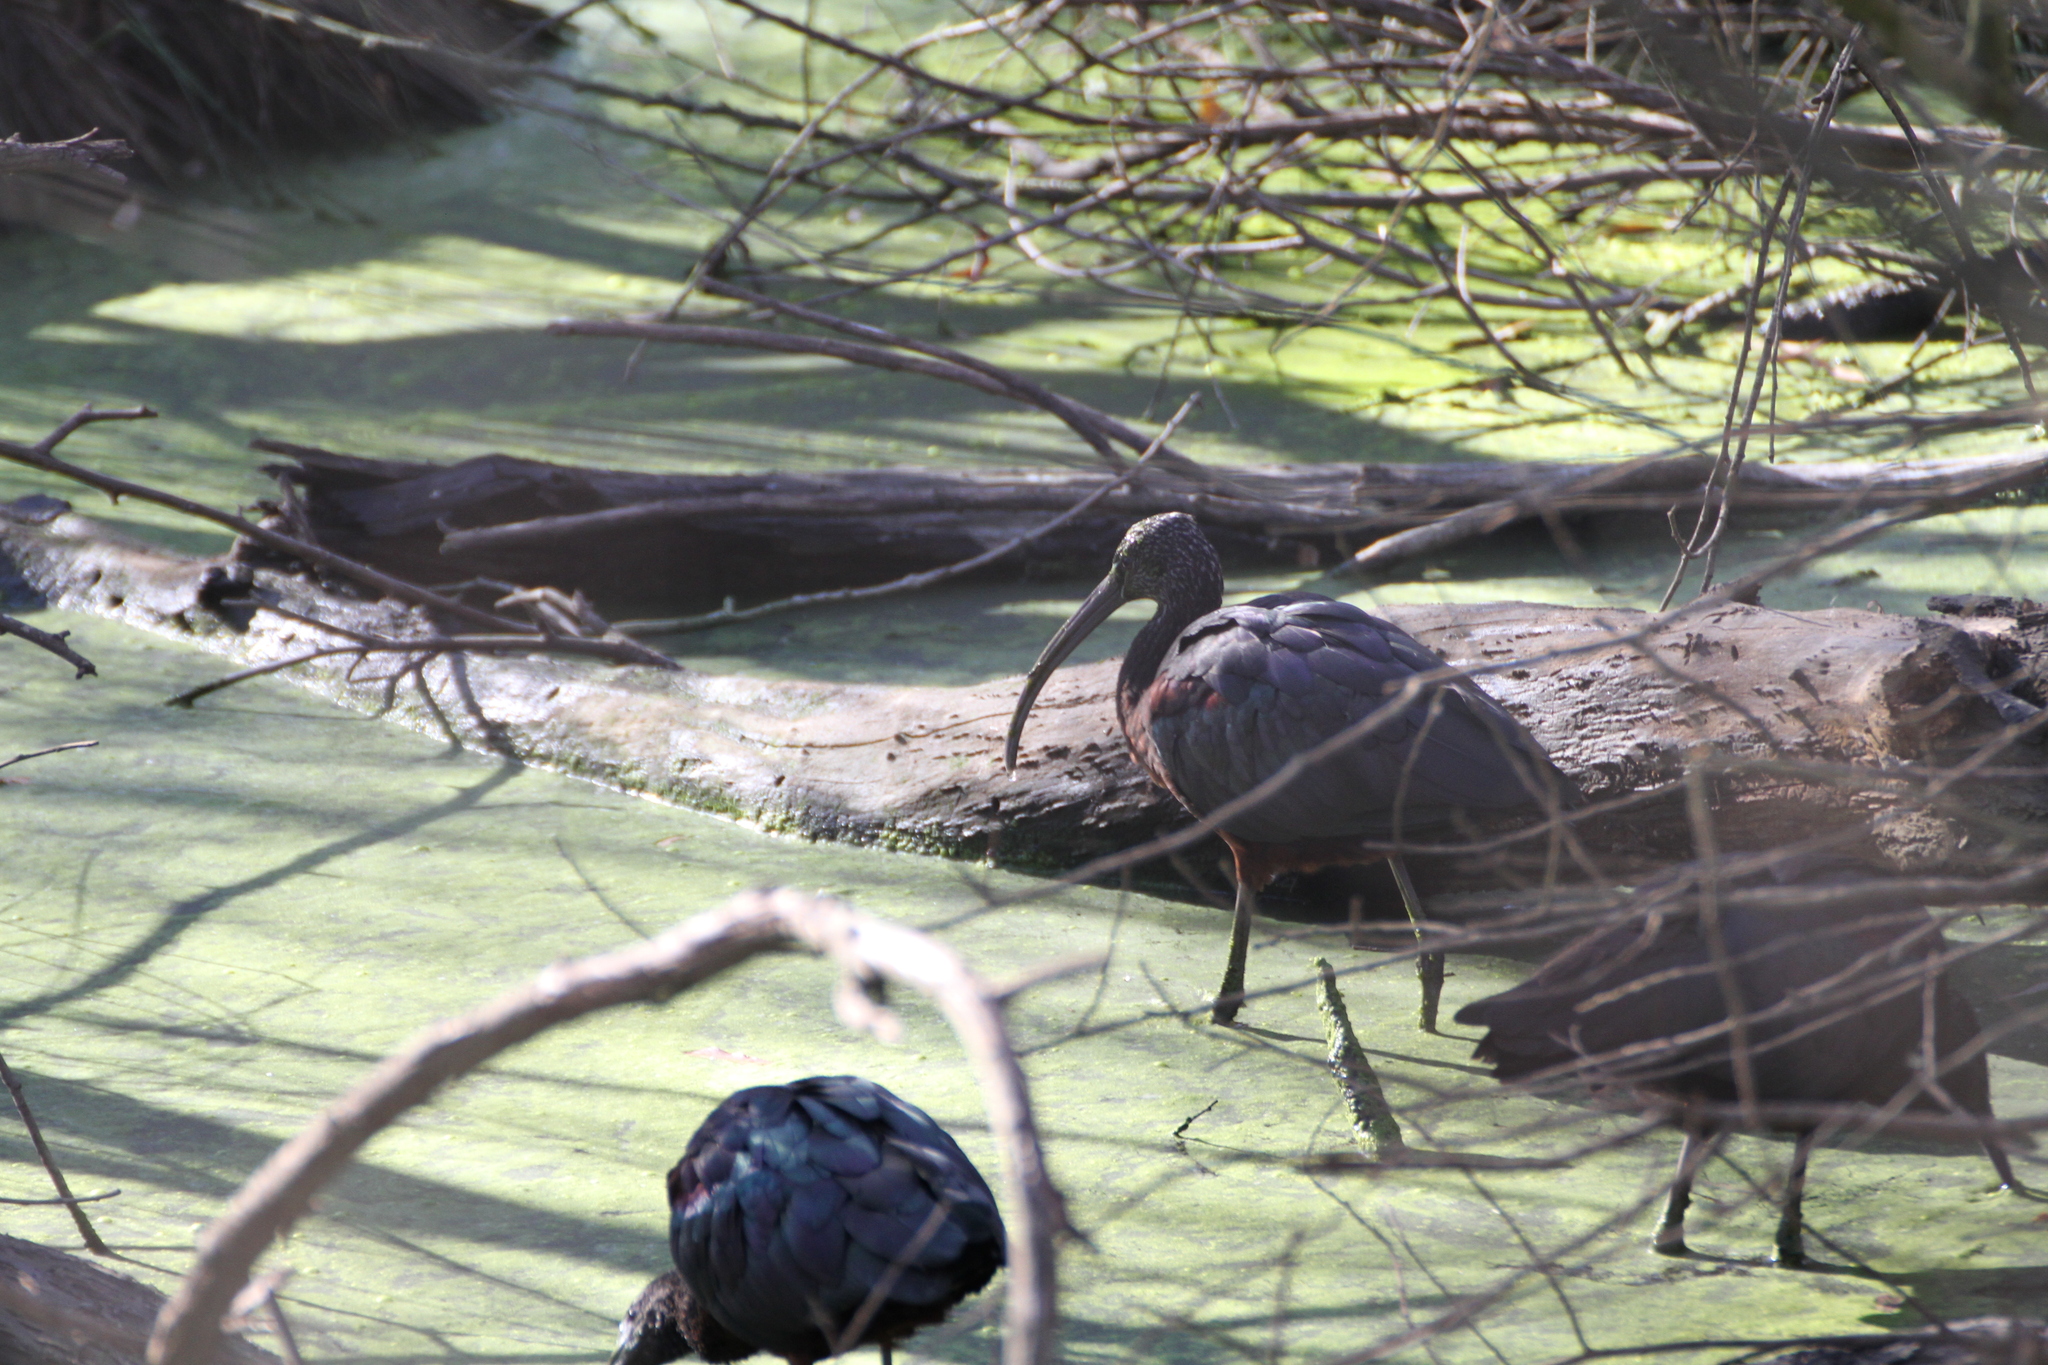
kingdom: Animalia
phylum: Chordata
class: Aves
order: Pelecaniformes
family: Threskiornithidae
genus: Plegadis
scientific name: Plegadis falcinellus
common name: Glossy ibis
